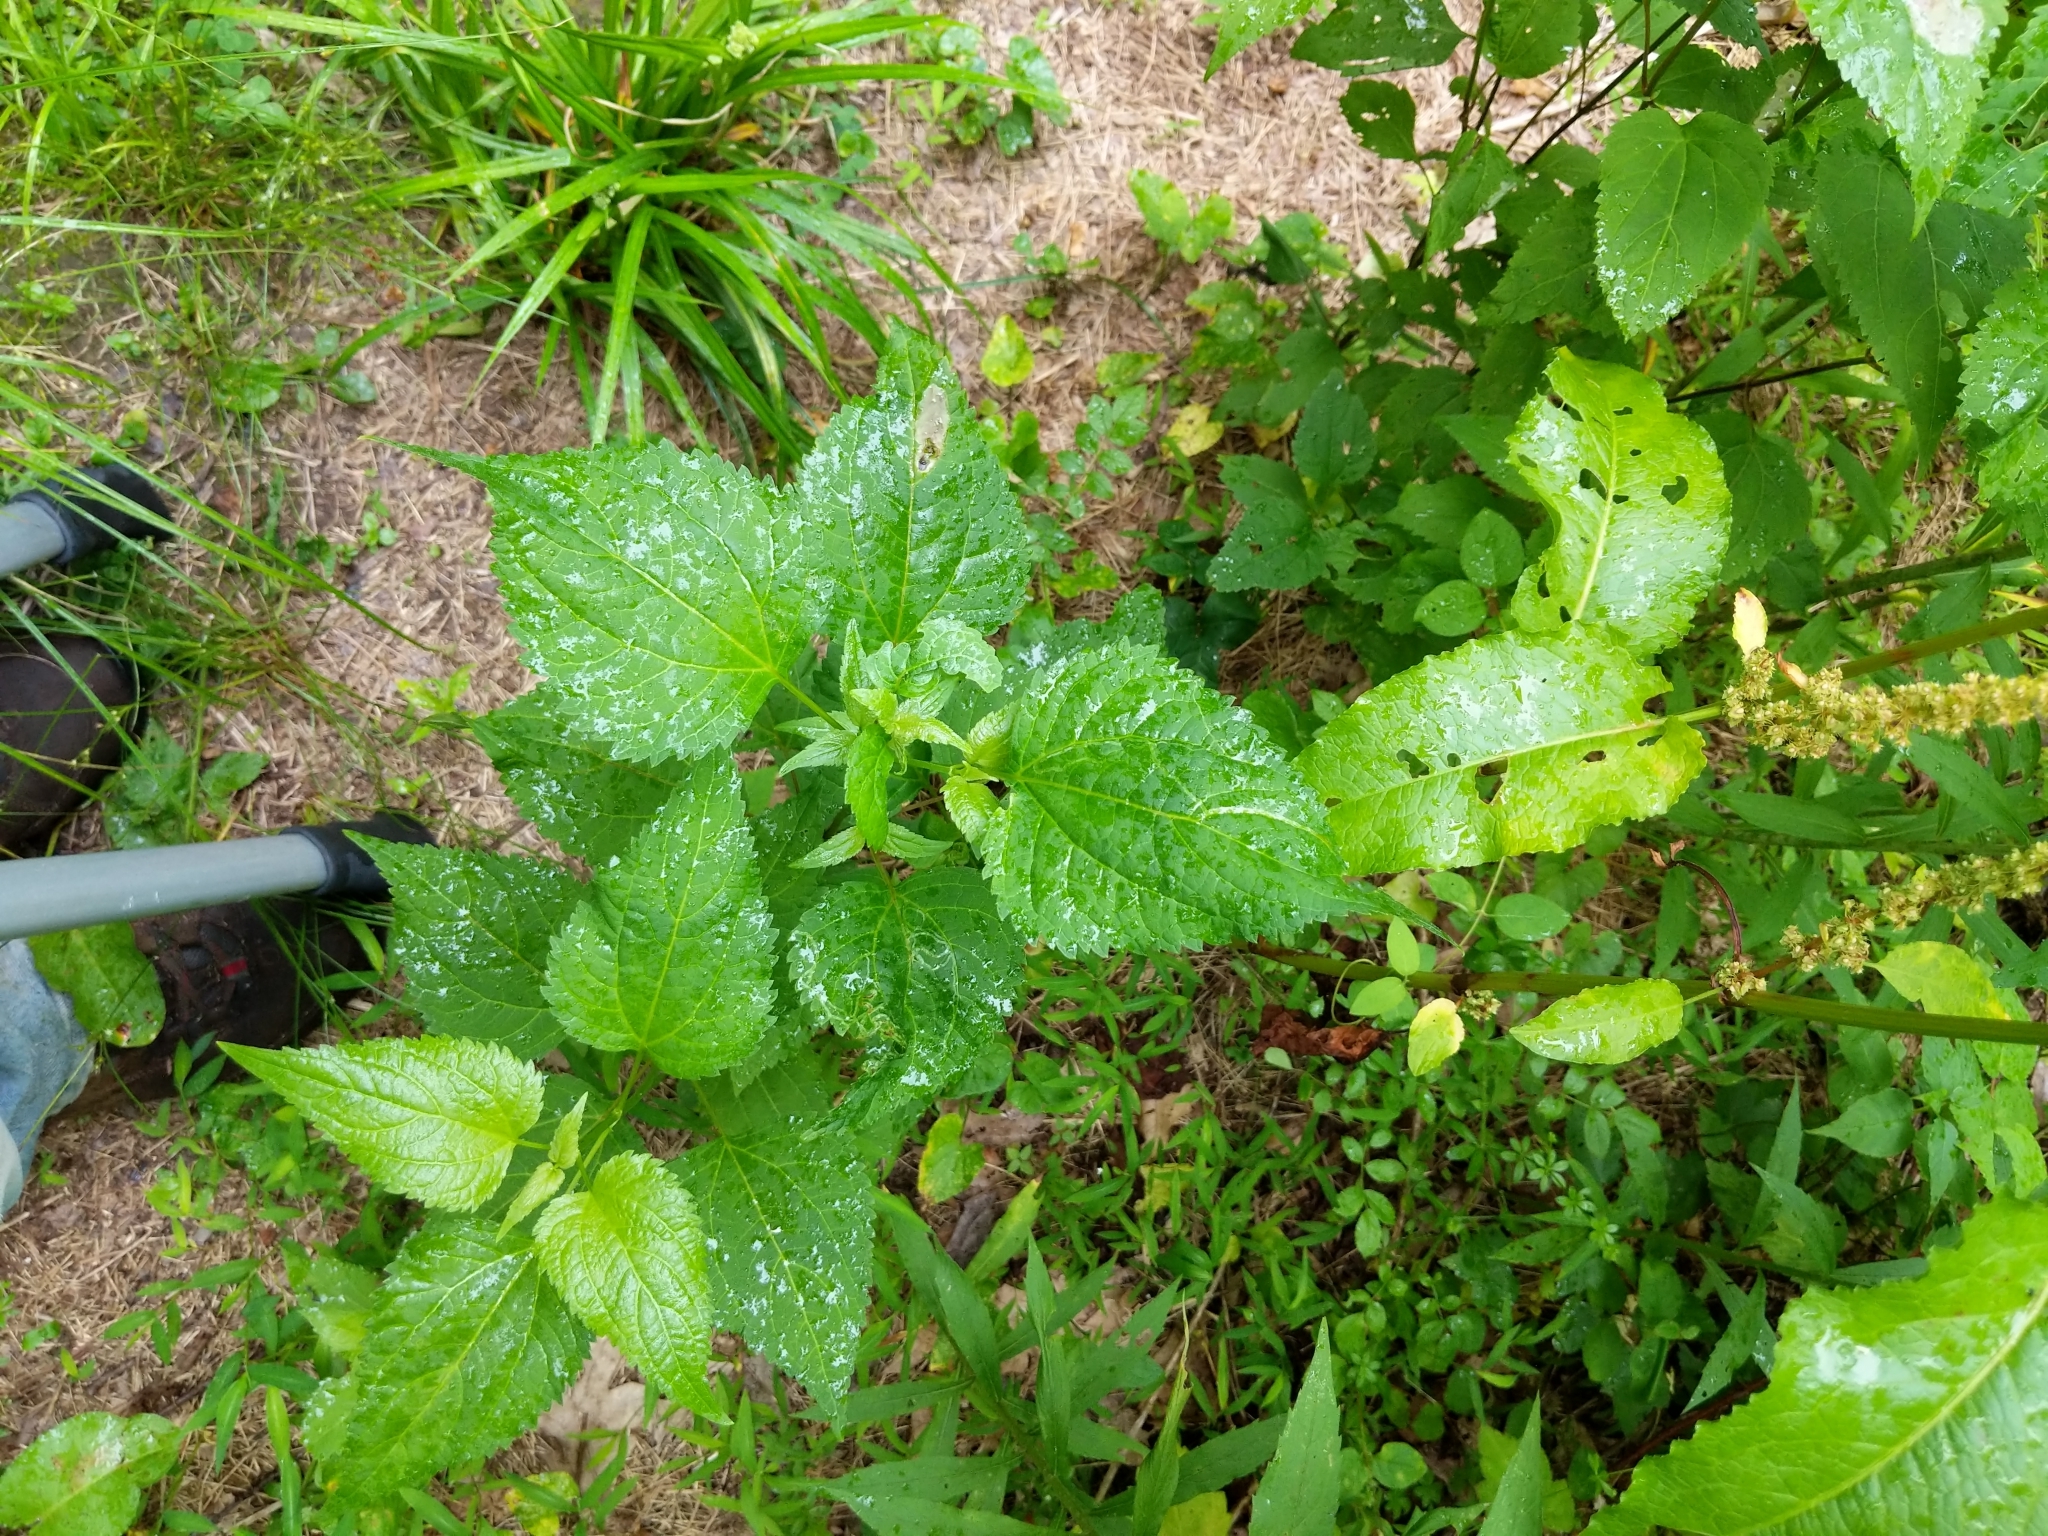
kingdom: Plantae
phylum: Tracheophyta
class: Magnoliopsida
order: Asterales
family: Asteraceae
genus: Ageratina
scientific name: Ageratina altissima
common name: White snakeroot
